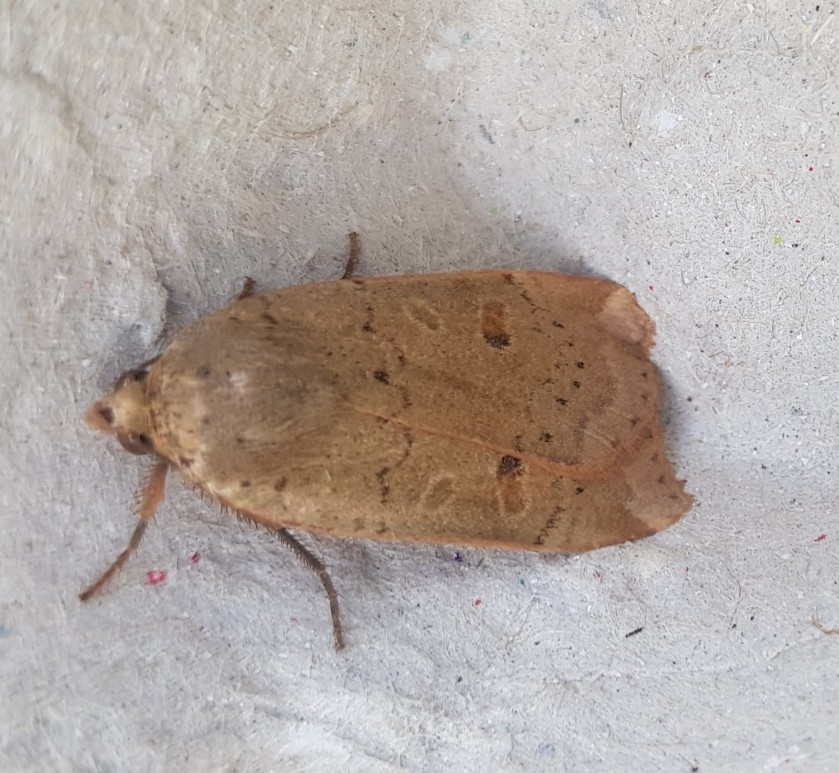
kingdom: Animalia
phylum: Arthropoda
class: Insecta
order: Lepidoptera
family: Noctuidae
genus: Noctua
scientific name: Noctua comes
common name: Lesser yellow underwing
